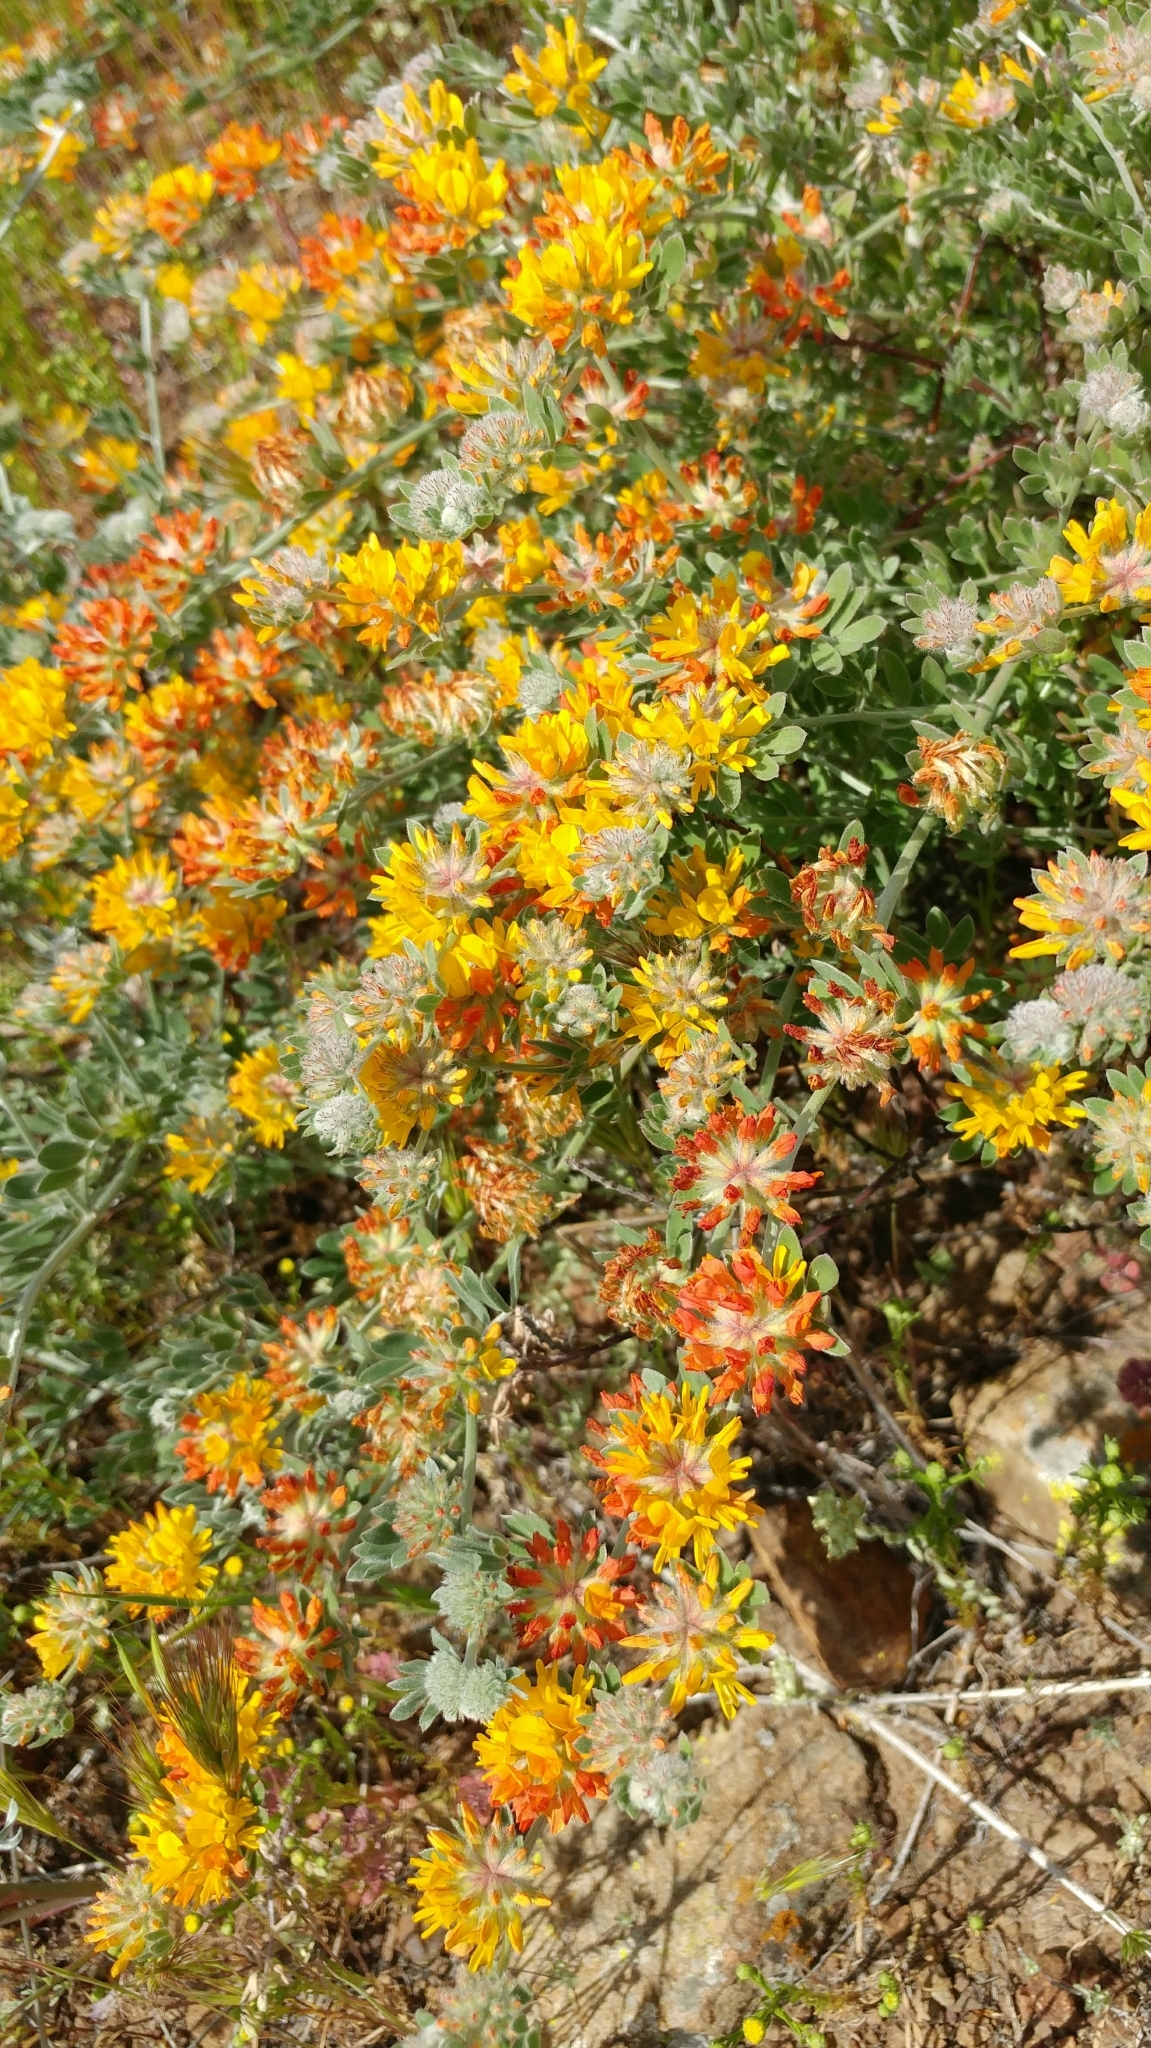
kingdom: Plantae
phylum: Tracheophyta
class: Magnoliopsida
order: Fabales
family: Fabaceae
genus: Acmispon
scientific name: Acmispon argophyllus
